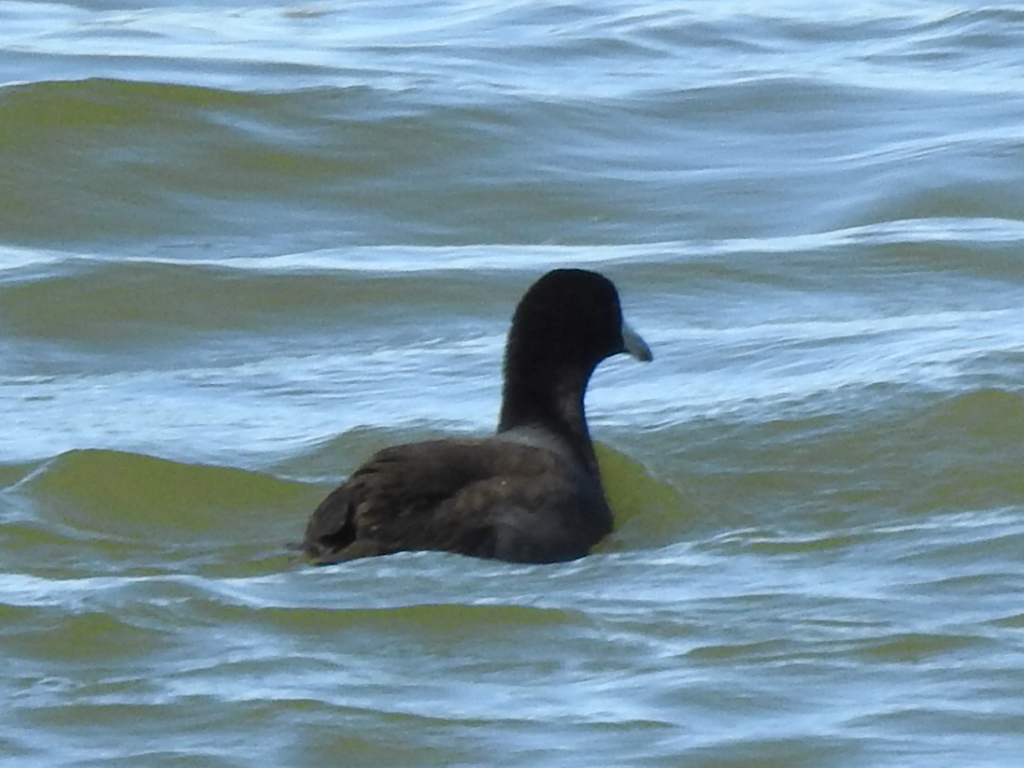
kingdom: Animalia
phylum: Chordata
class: Aves
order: Gruiformes
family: Rallidae
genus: Fulica
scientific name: Fulica americana
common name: American coot
